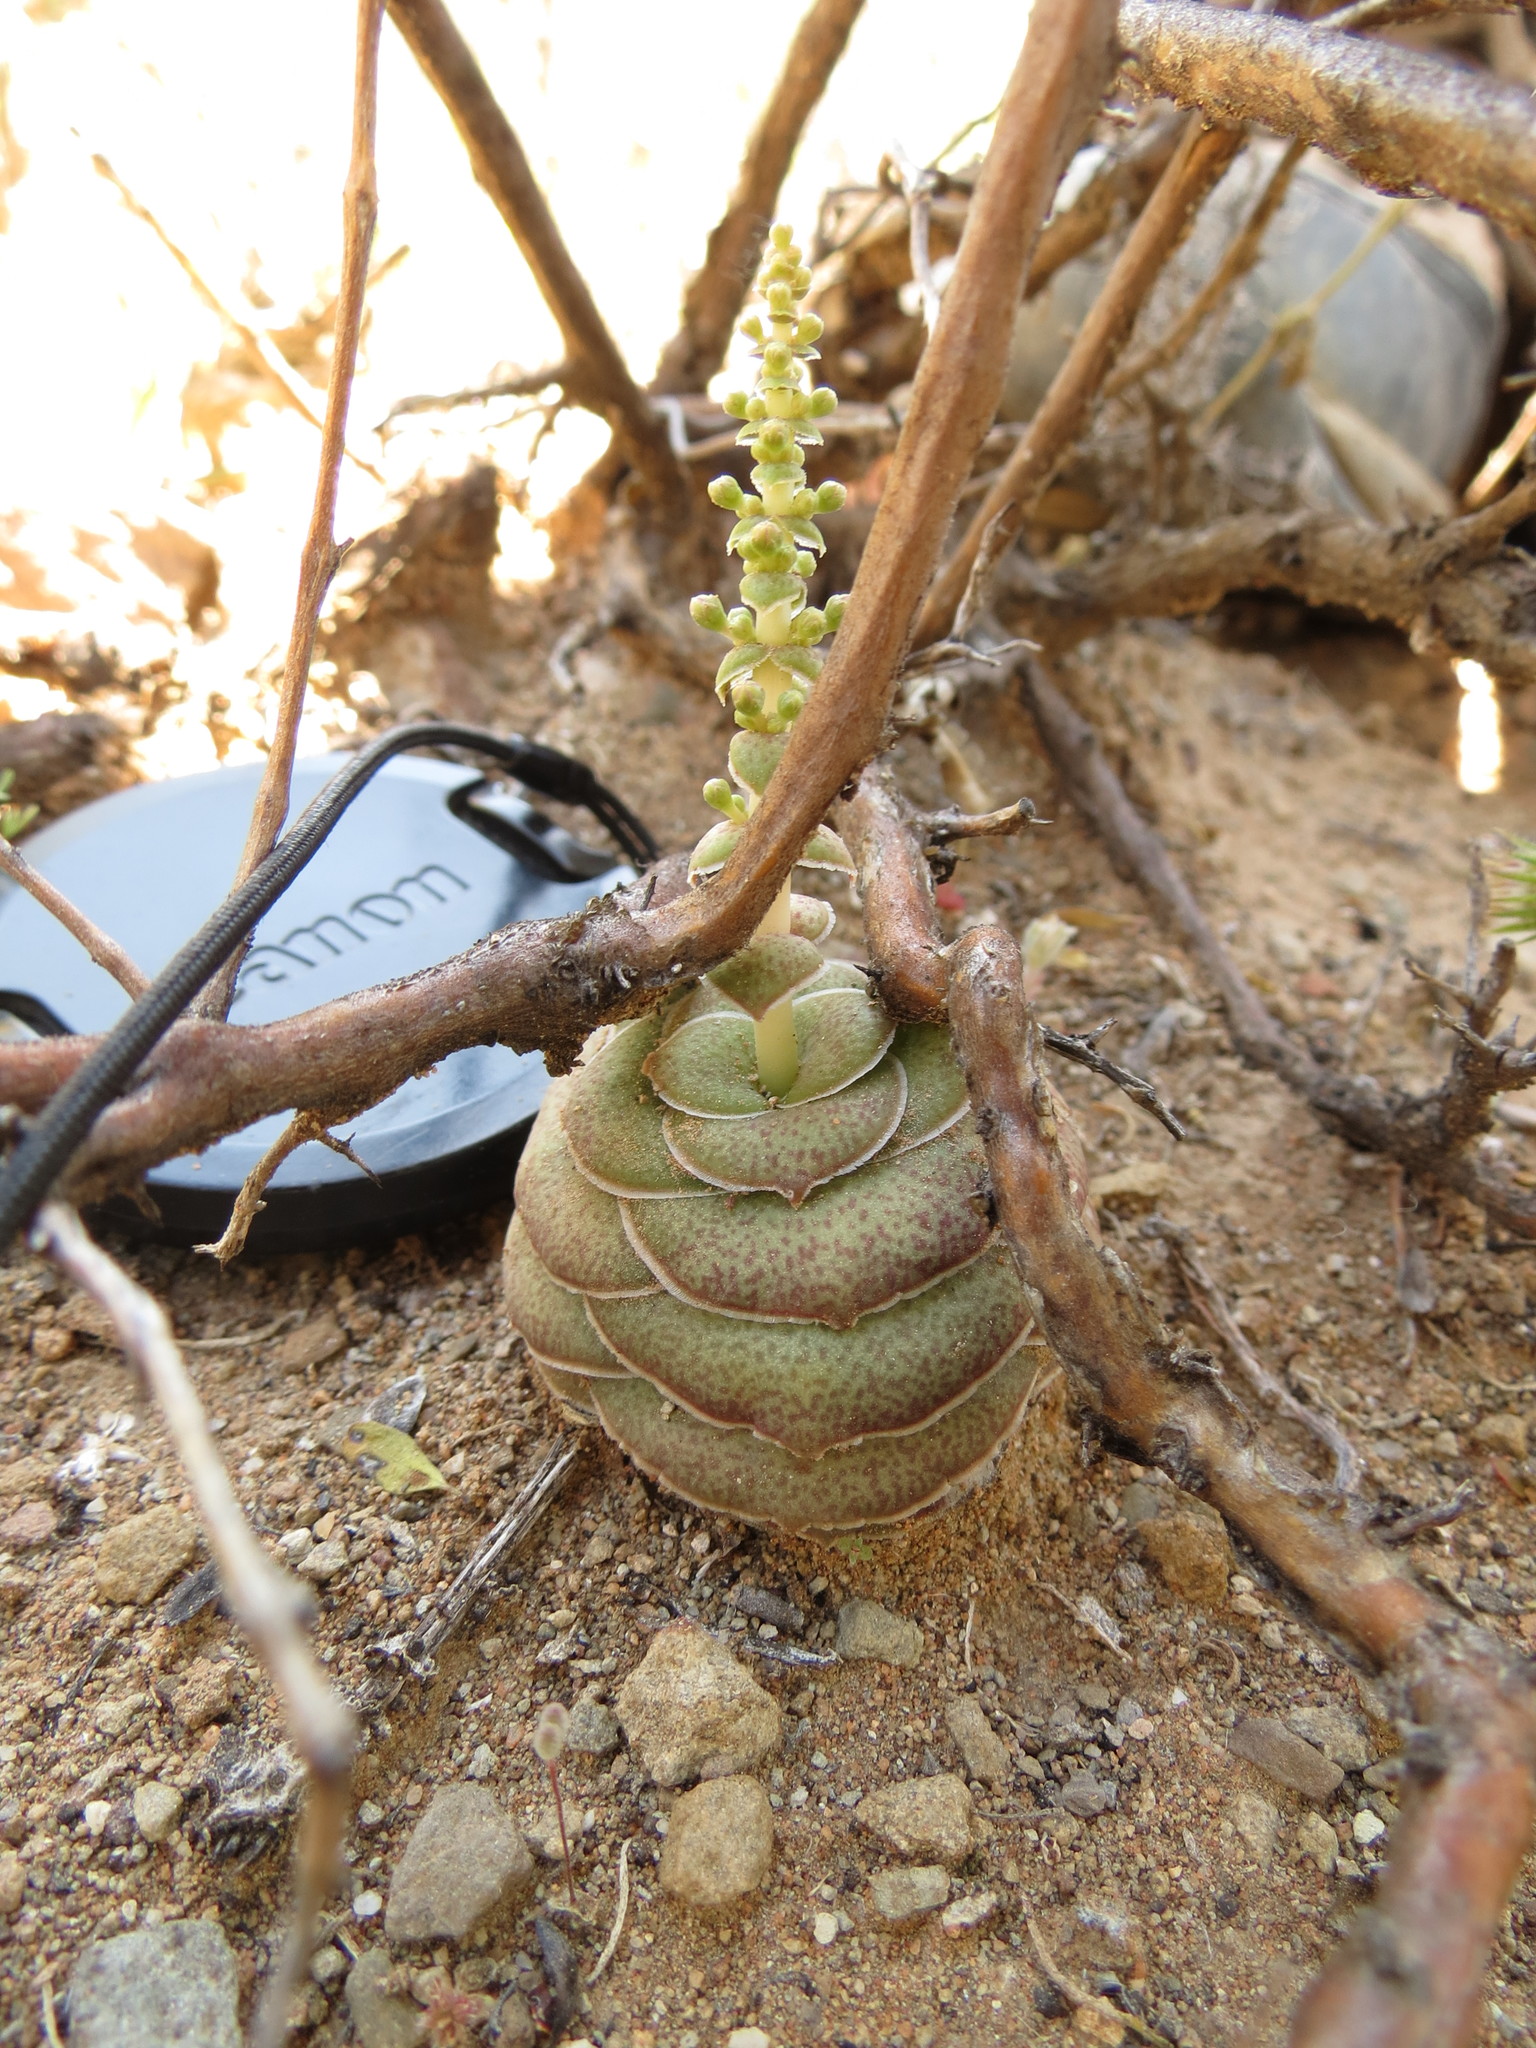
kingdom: Plantae
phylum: Tracheophyta
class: Magnoliopsida
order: Saxifragales
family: Crassulaceae
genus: Crassula
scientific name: Crassula hemisphaerica
